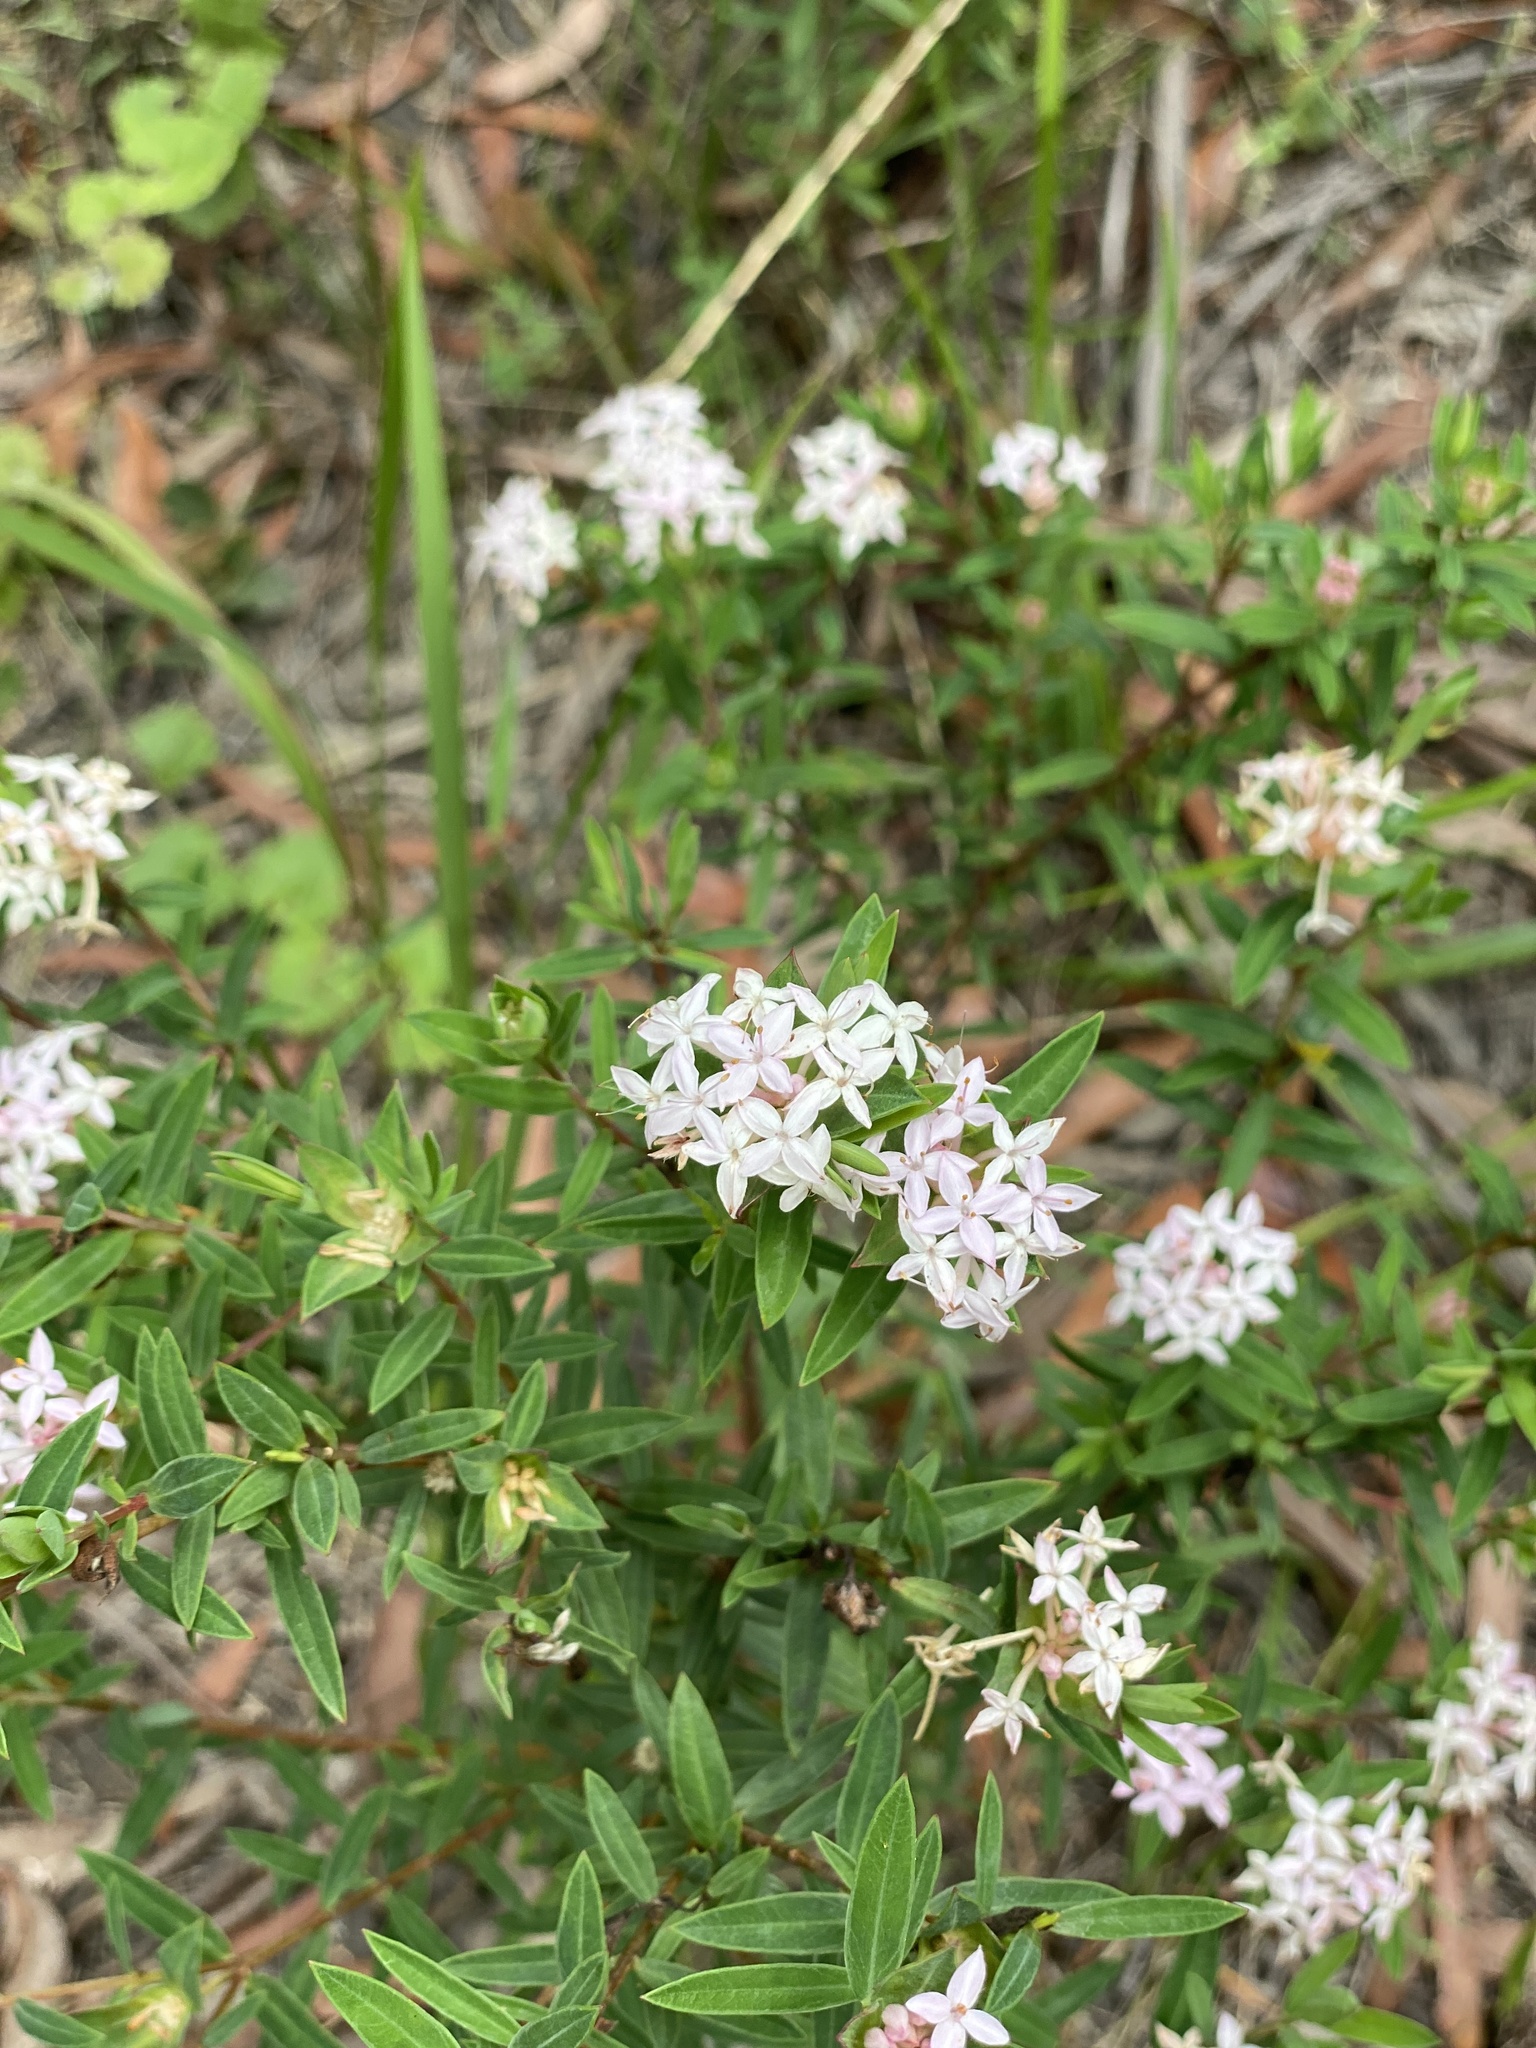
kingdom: Plantae
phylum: Tracheophyta
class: Magnoliopsida
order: Malvales
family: Thymelaeaceae
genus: Pimelea
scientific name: Pimelea linifolia
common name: Queen-of-the-bush
